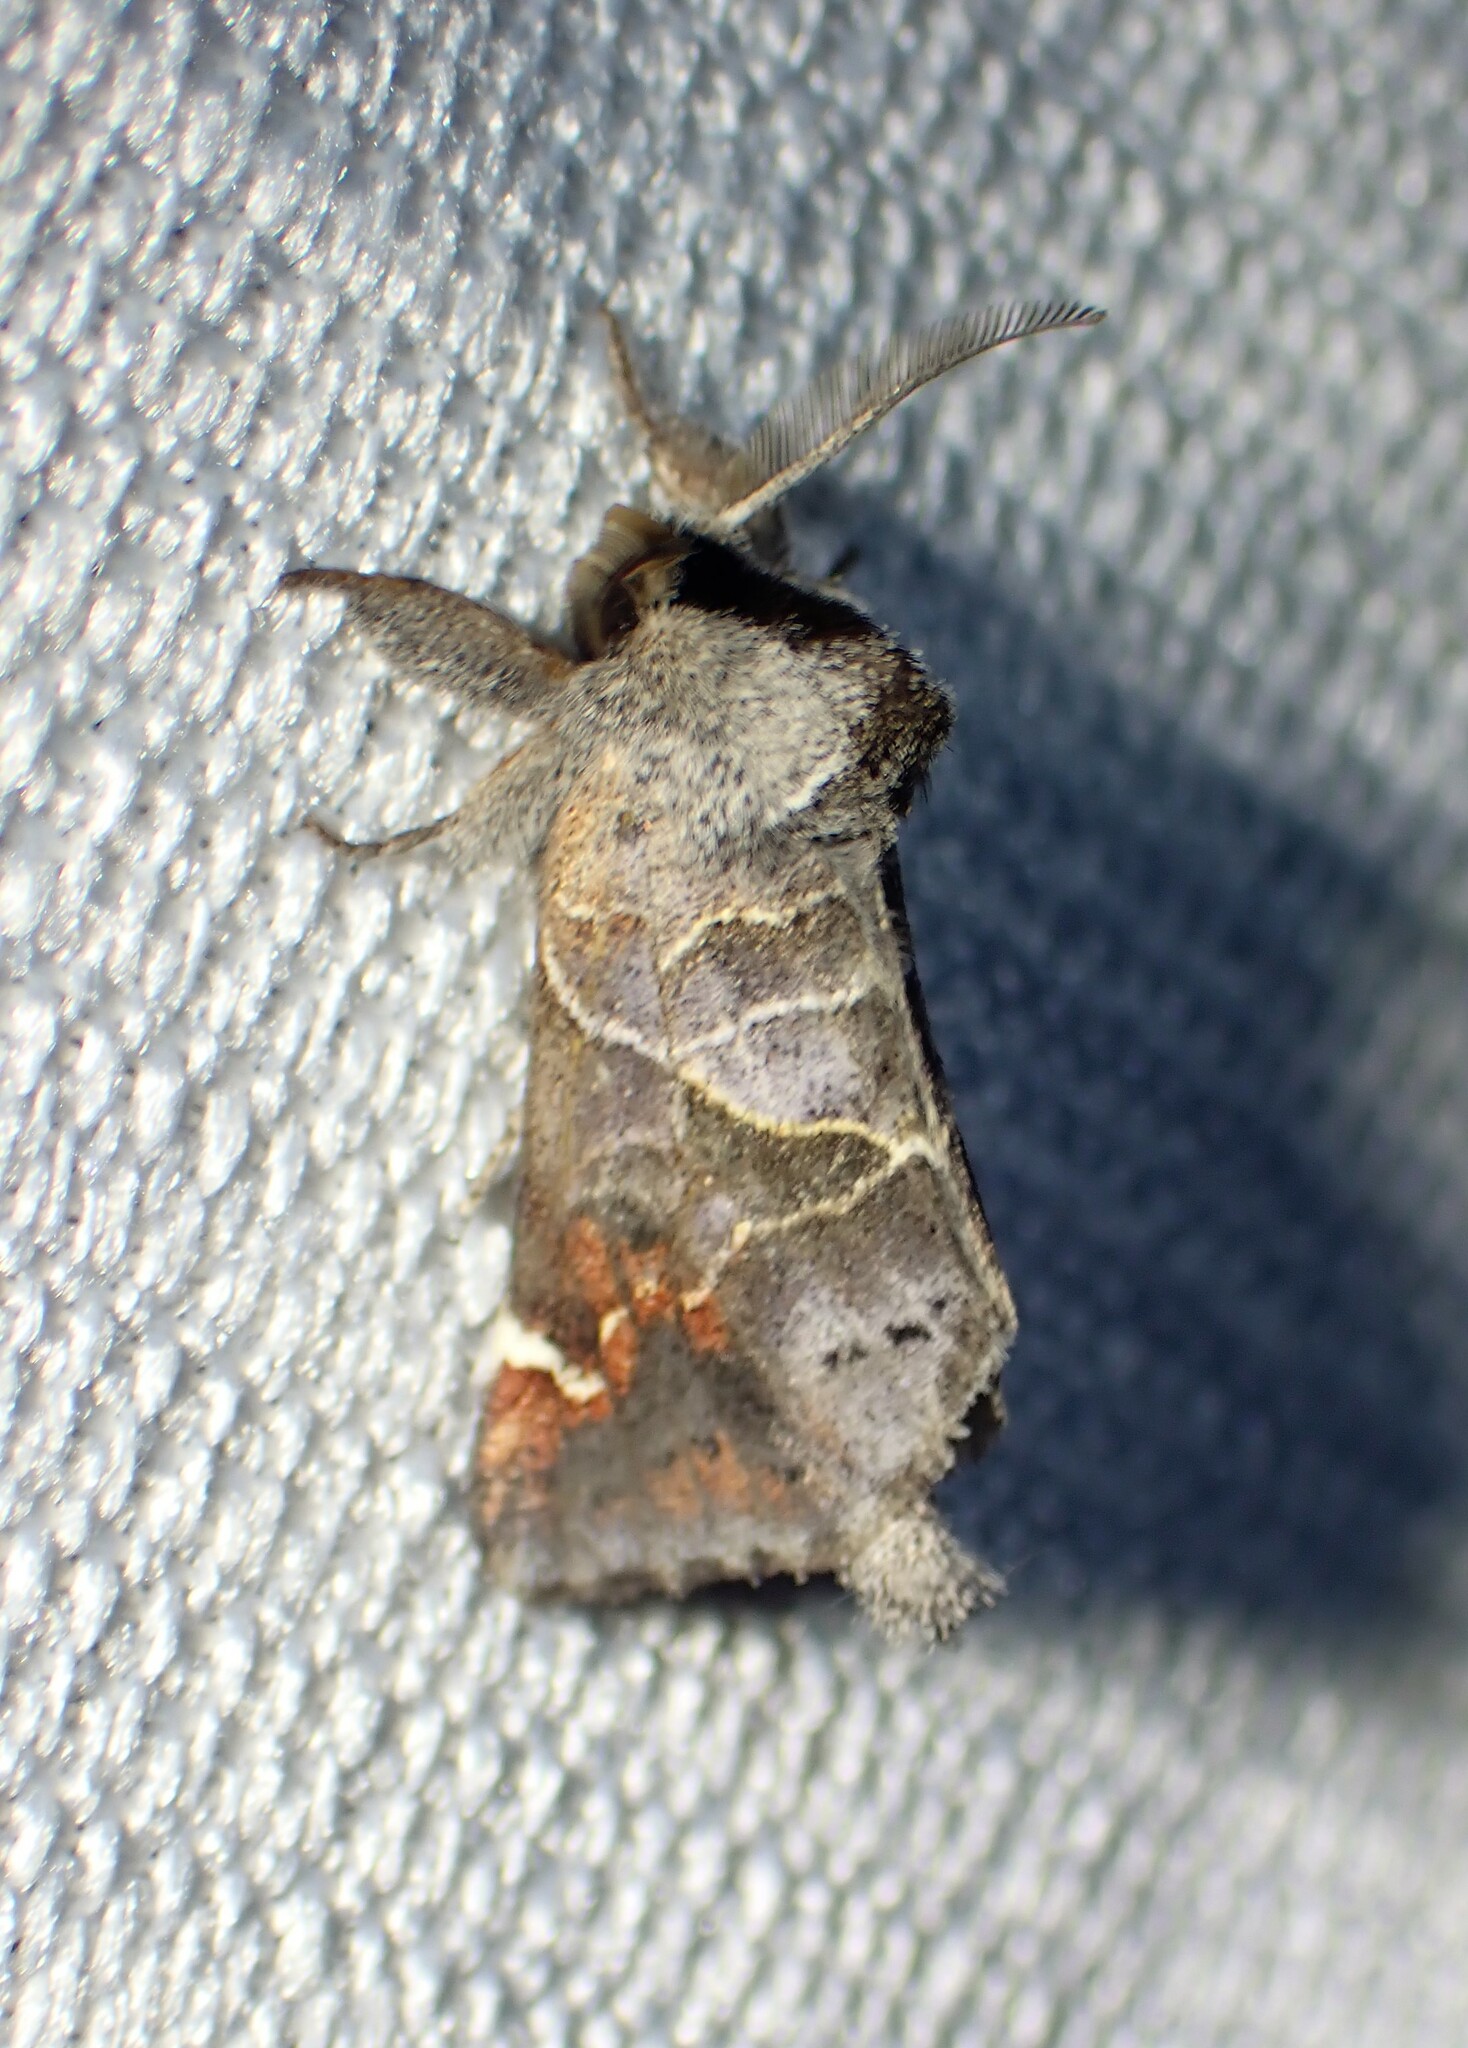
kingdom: Animalia
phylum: Arthropoda
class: Insecta
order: Lepidoptera
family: Notodontidae
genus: Clostera
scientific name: Clostera apicalis
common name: Apical prominent
